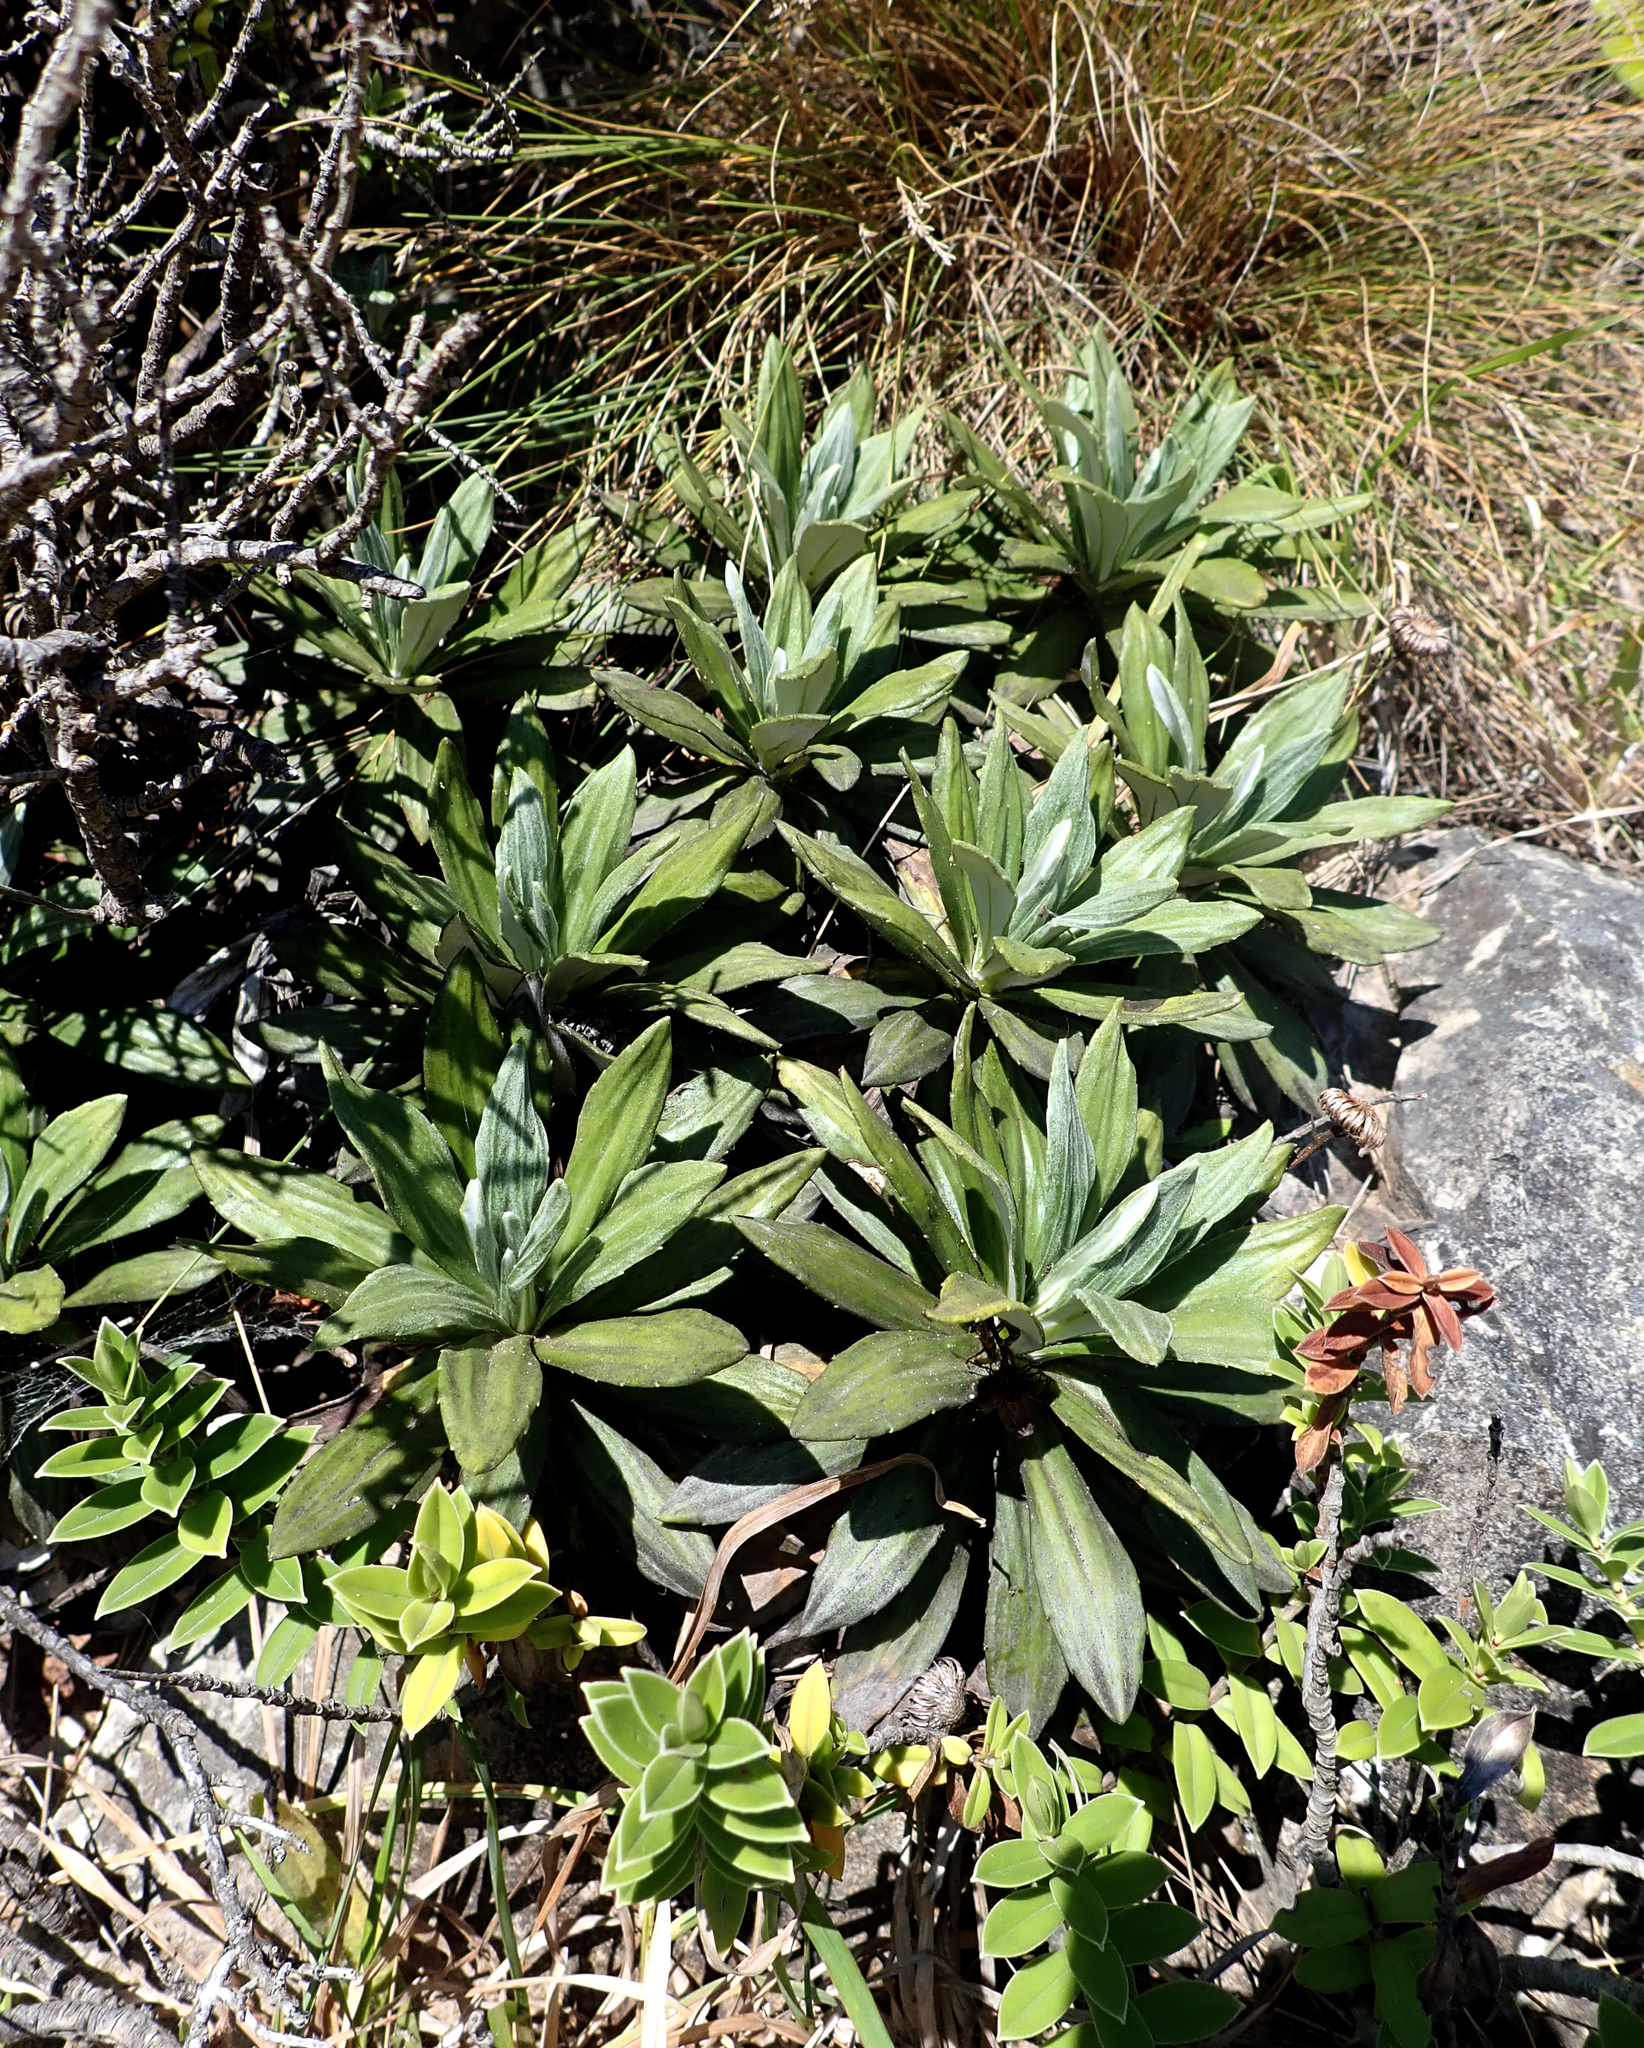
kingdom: Plantae
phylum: Tracheophyta
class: Magnoliopsida
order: Asterales
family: Asteraceae
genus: Celmisia
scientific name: Celmisia lindsayi
